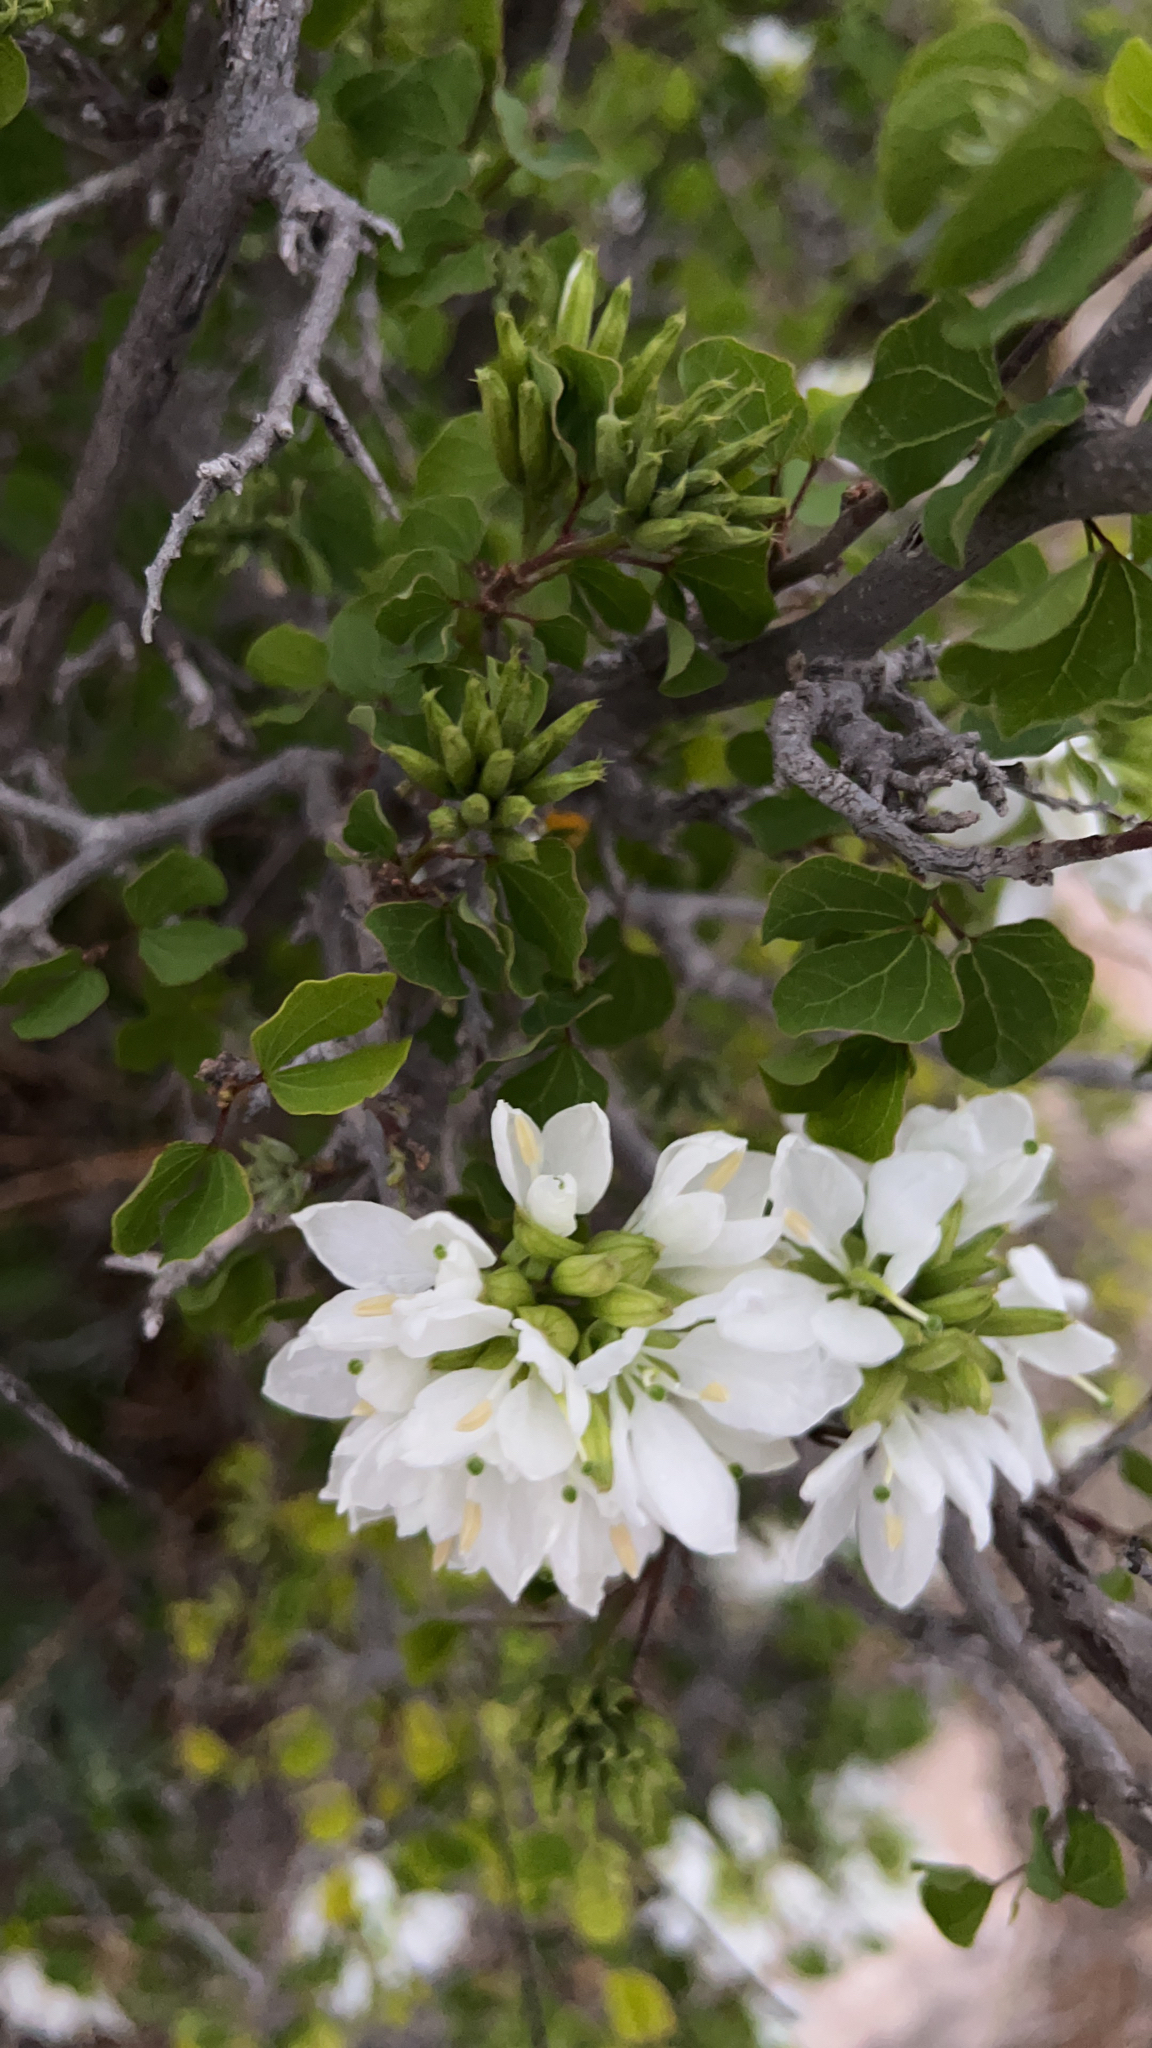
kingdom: Plantae
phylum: Tracheophyta
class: Magnoliopsida
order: Fabales
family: Fabaceae
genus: Bauhinia
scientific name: Bauhinia lunarioides
